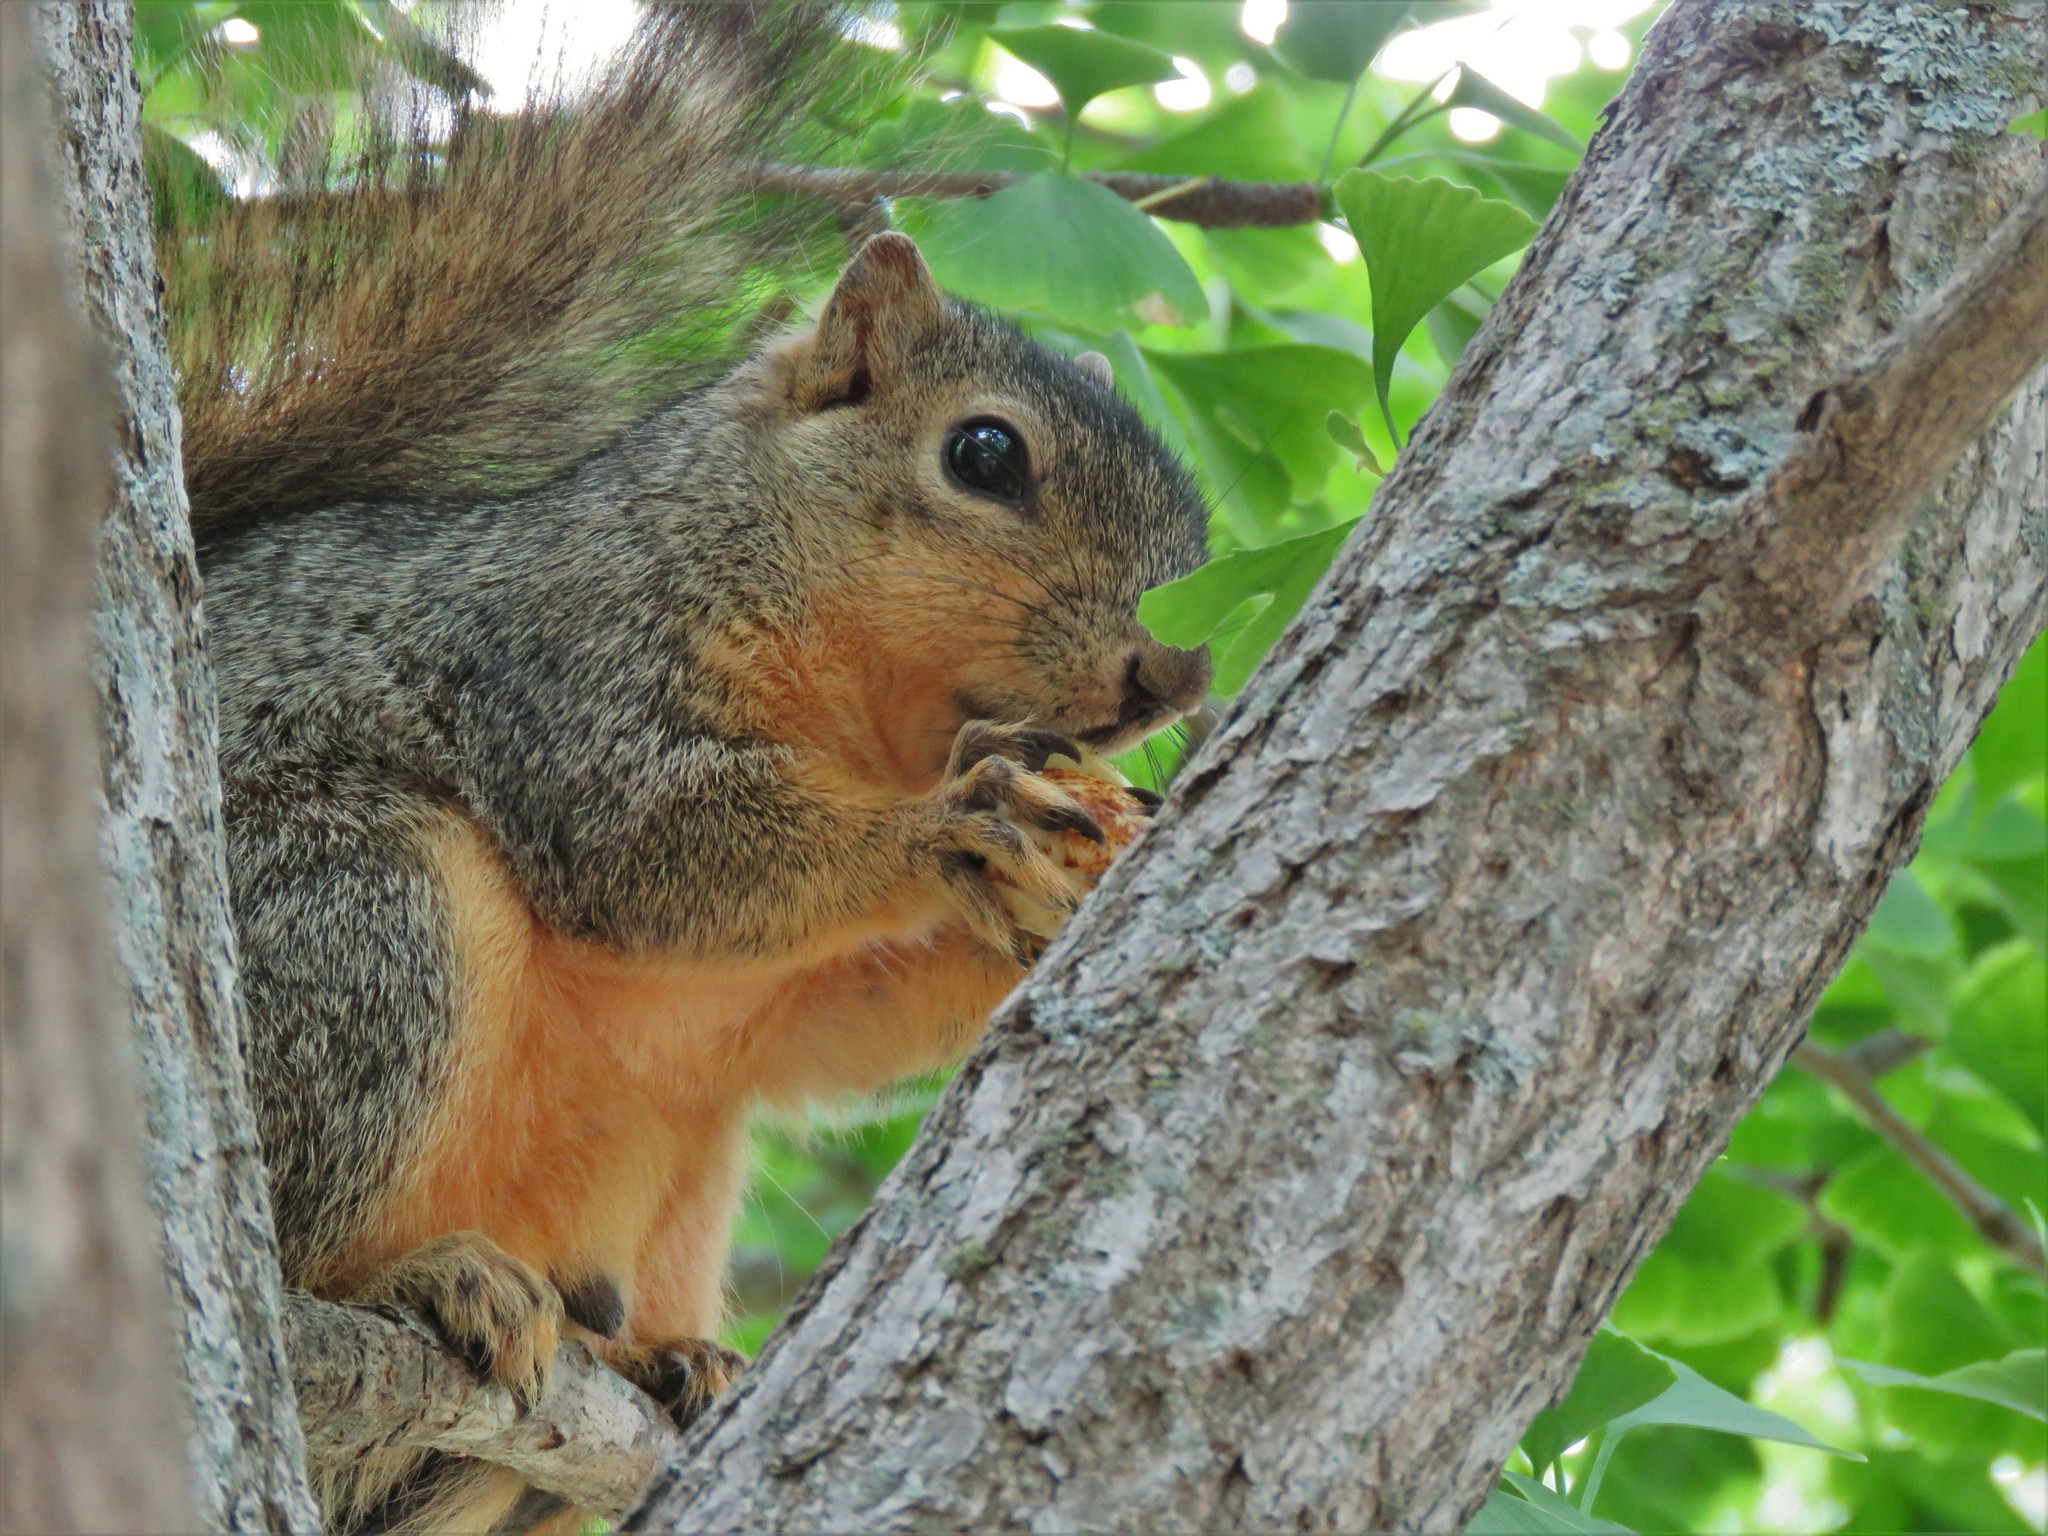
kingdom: Animalia
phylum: Chordata
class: Mammalia
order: Rodentia
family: Sciuridae
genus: Sciurus
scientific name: Sciurus niger
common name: Fox squirrel
